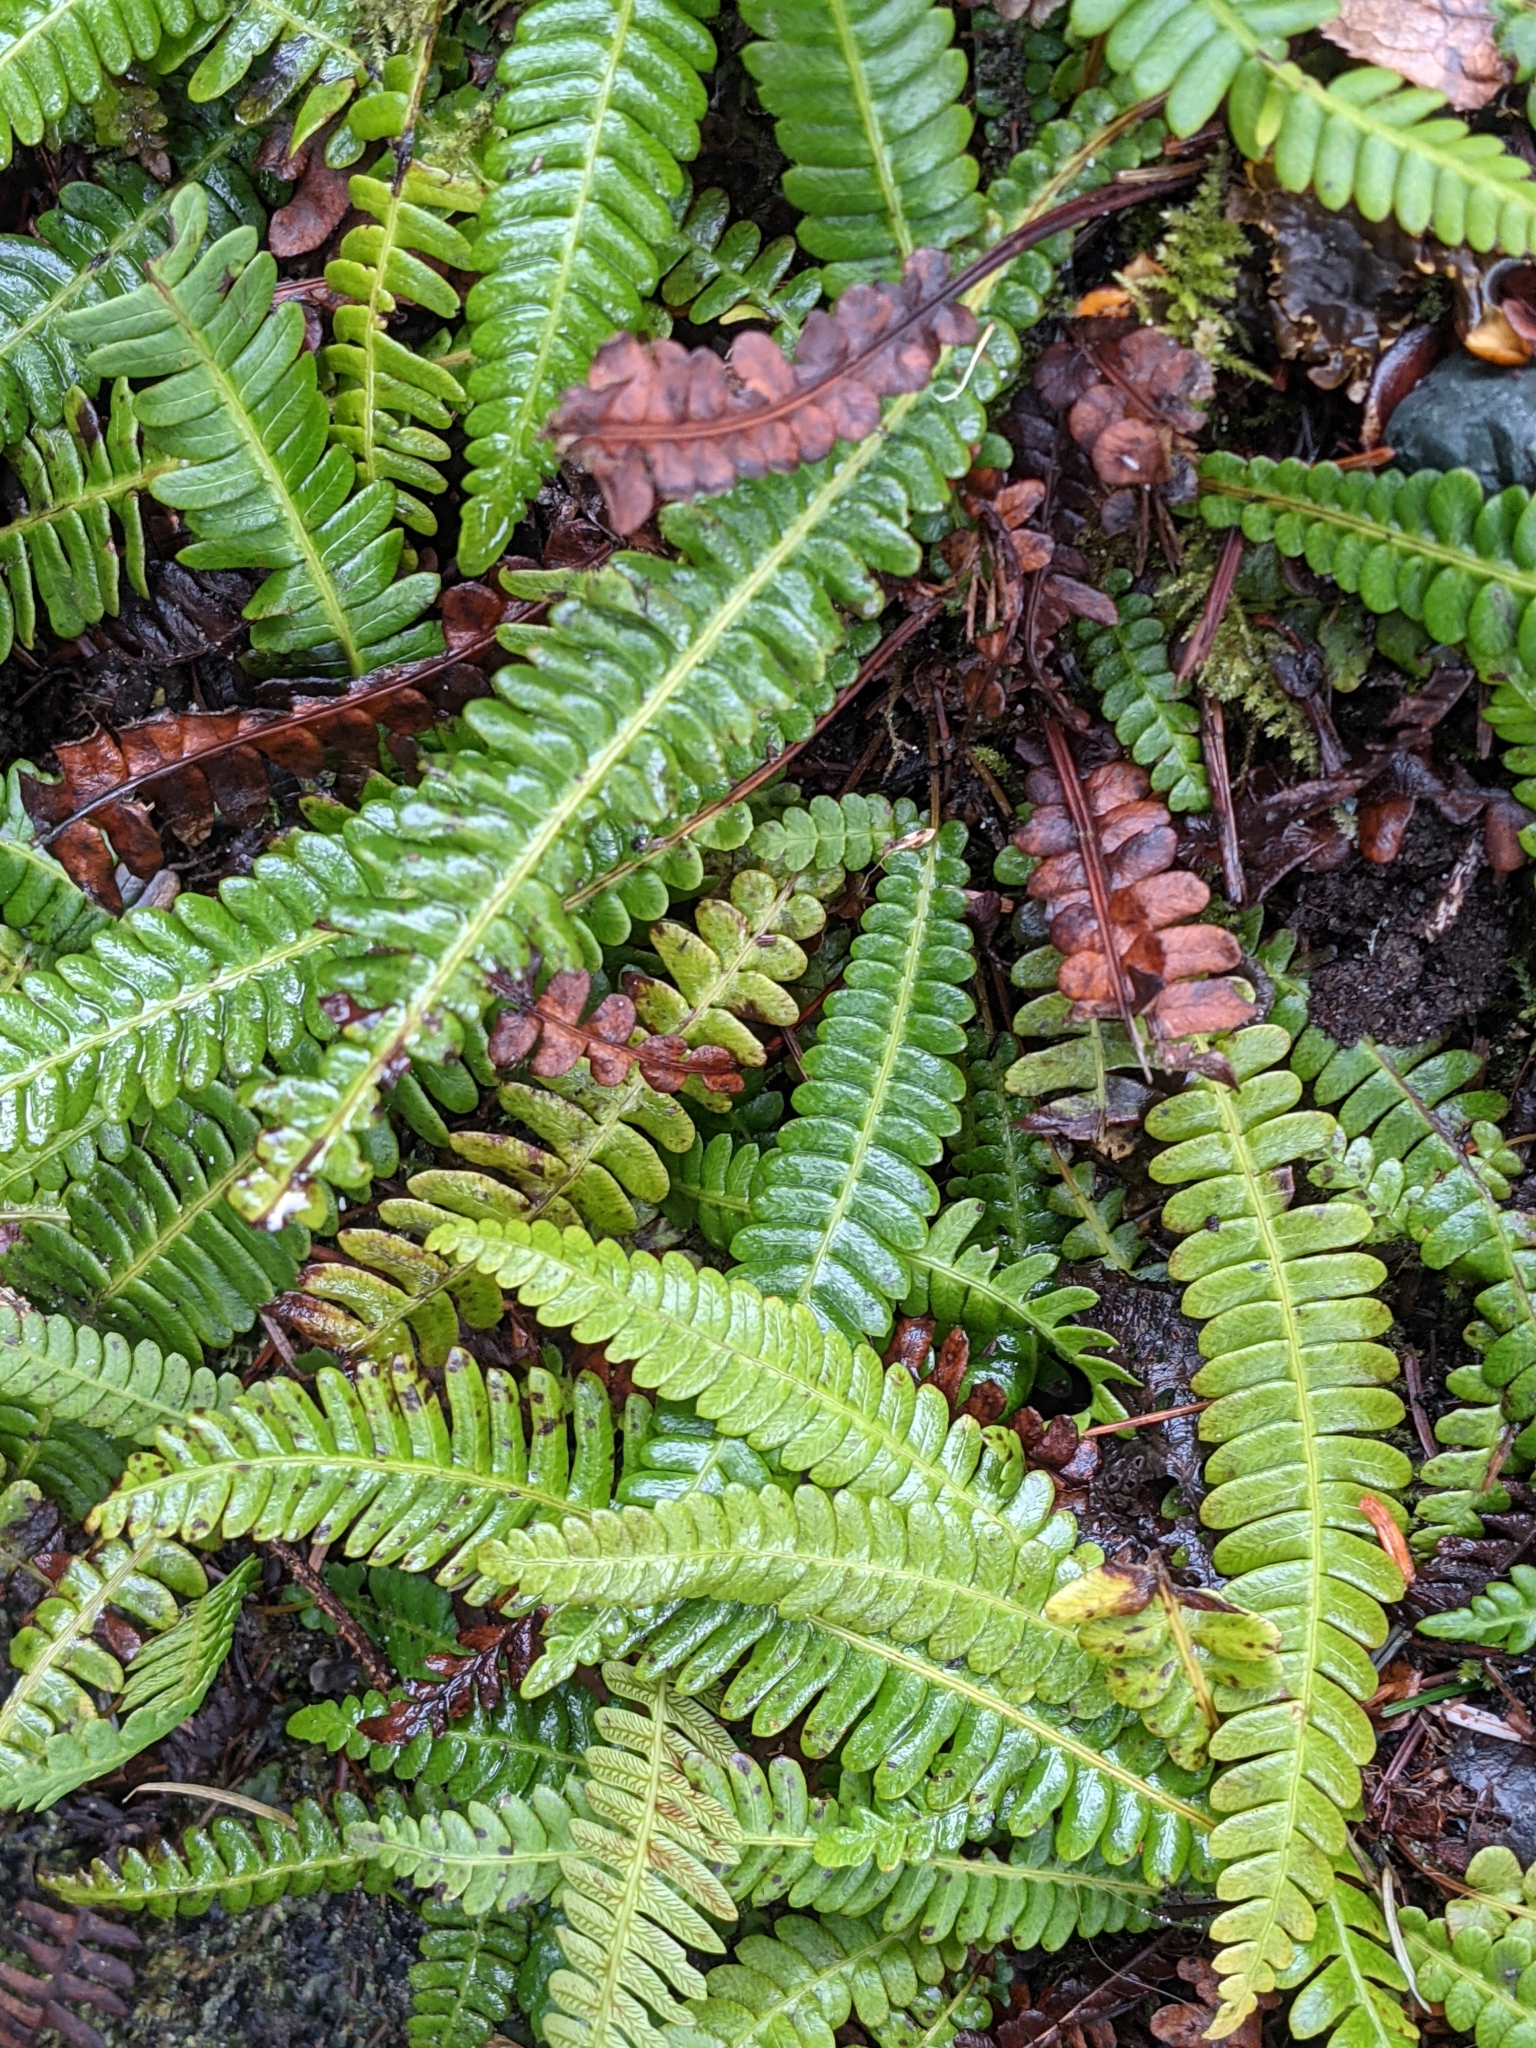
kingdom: Plantae
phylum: Tracheophyta
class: Polypodiopsida
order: Polypodiales
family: Blechnaceae
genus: Struthiopteris
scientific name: Struthiopteris spicant
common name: Deer fern
